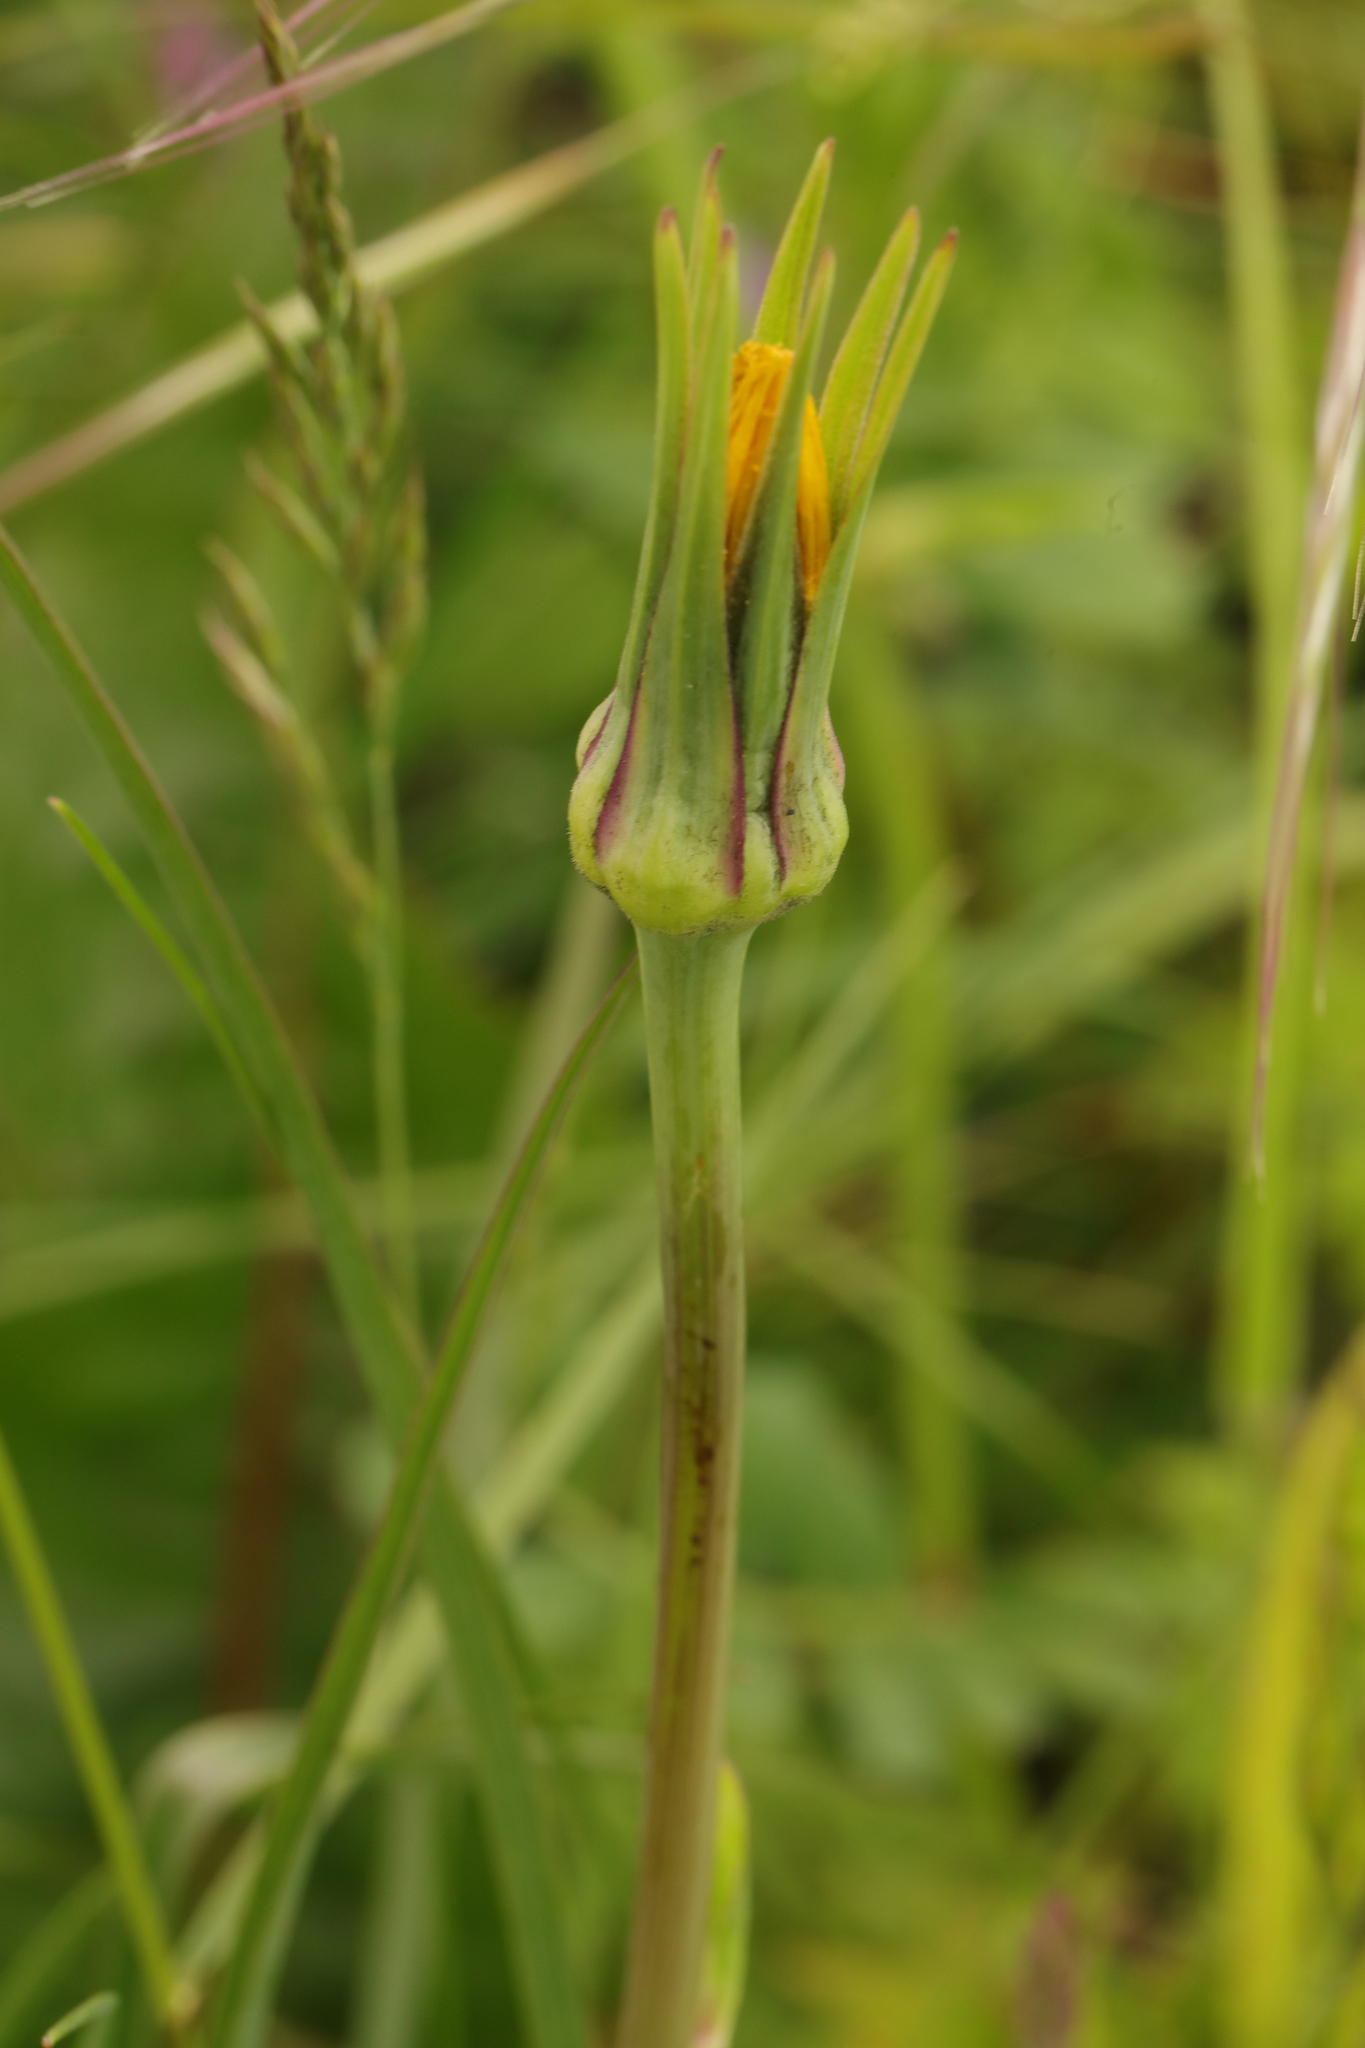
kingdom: Plantae
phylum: Tracheophyta
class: Magnoliopsida
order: Asterales
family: Asteraceae
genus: Tragopogon
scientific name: Tragopogon pratensis
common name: Goat's-beard
